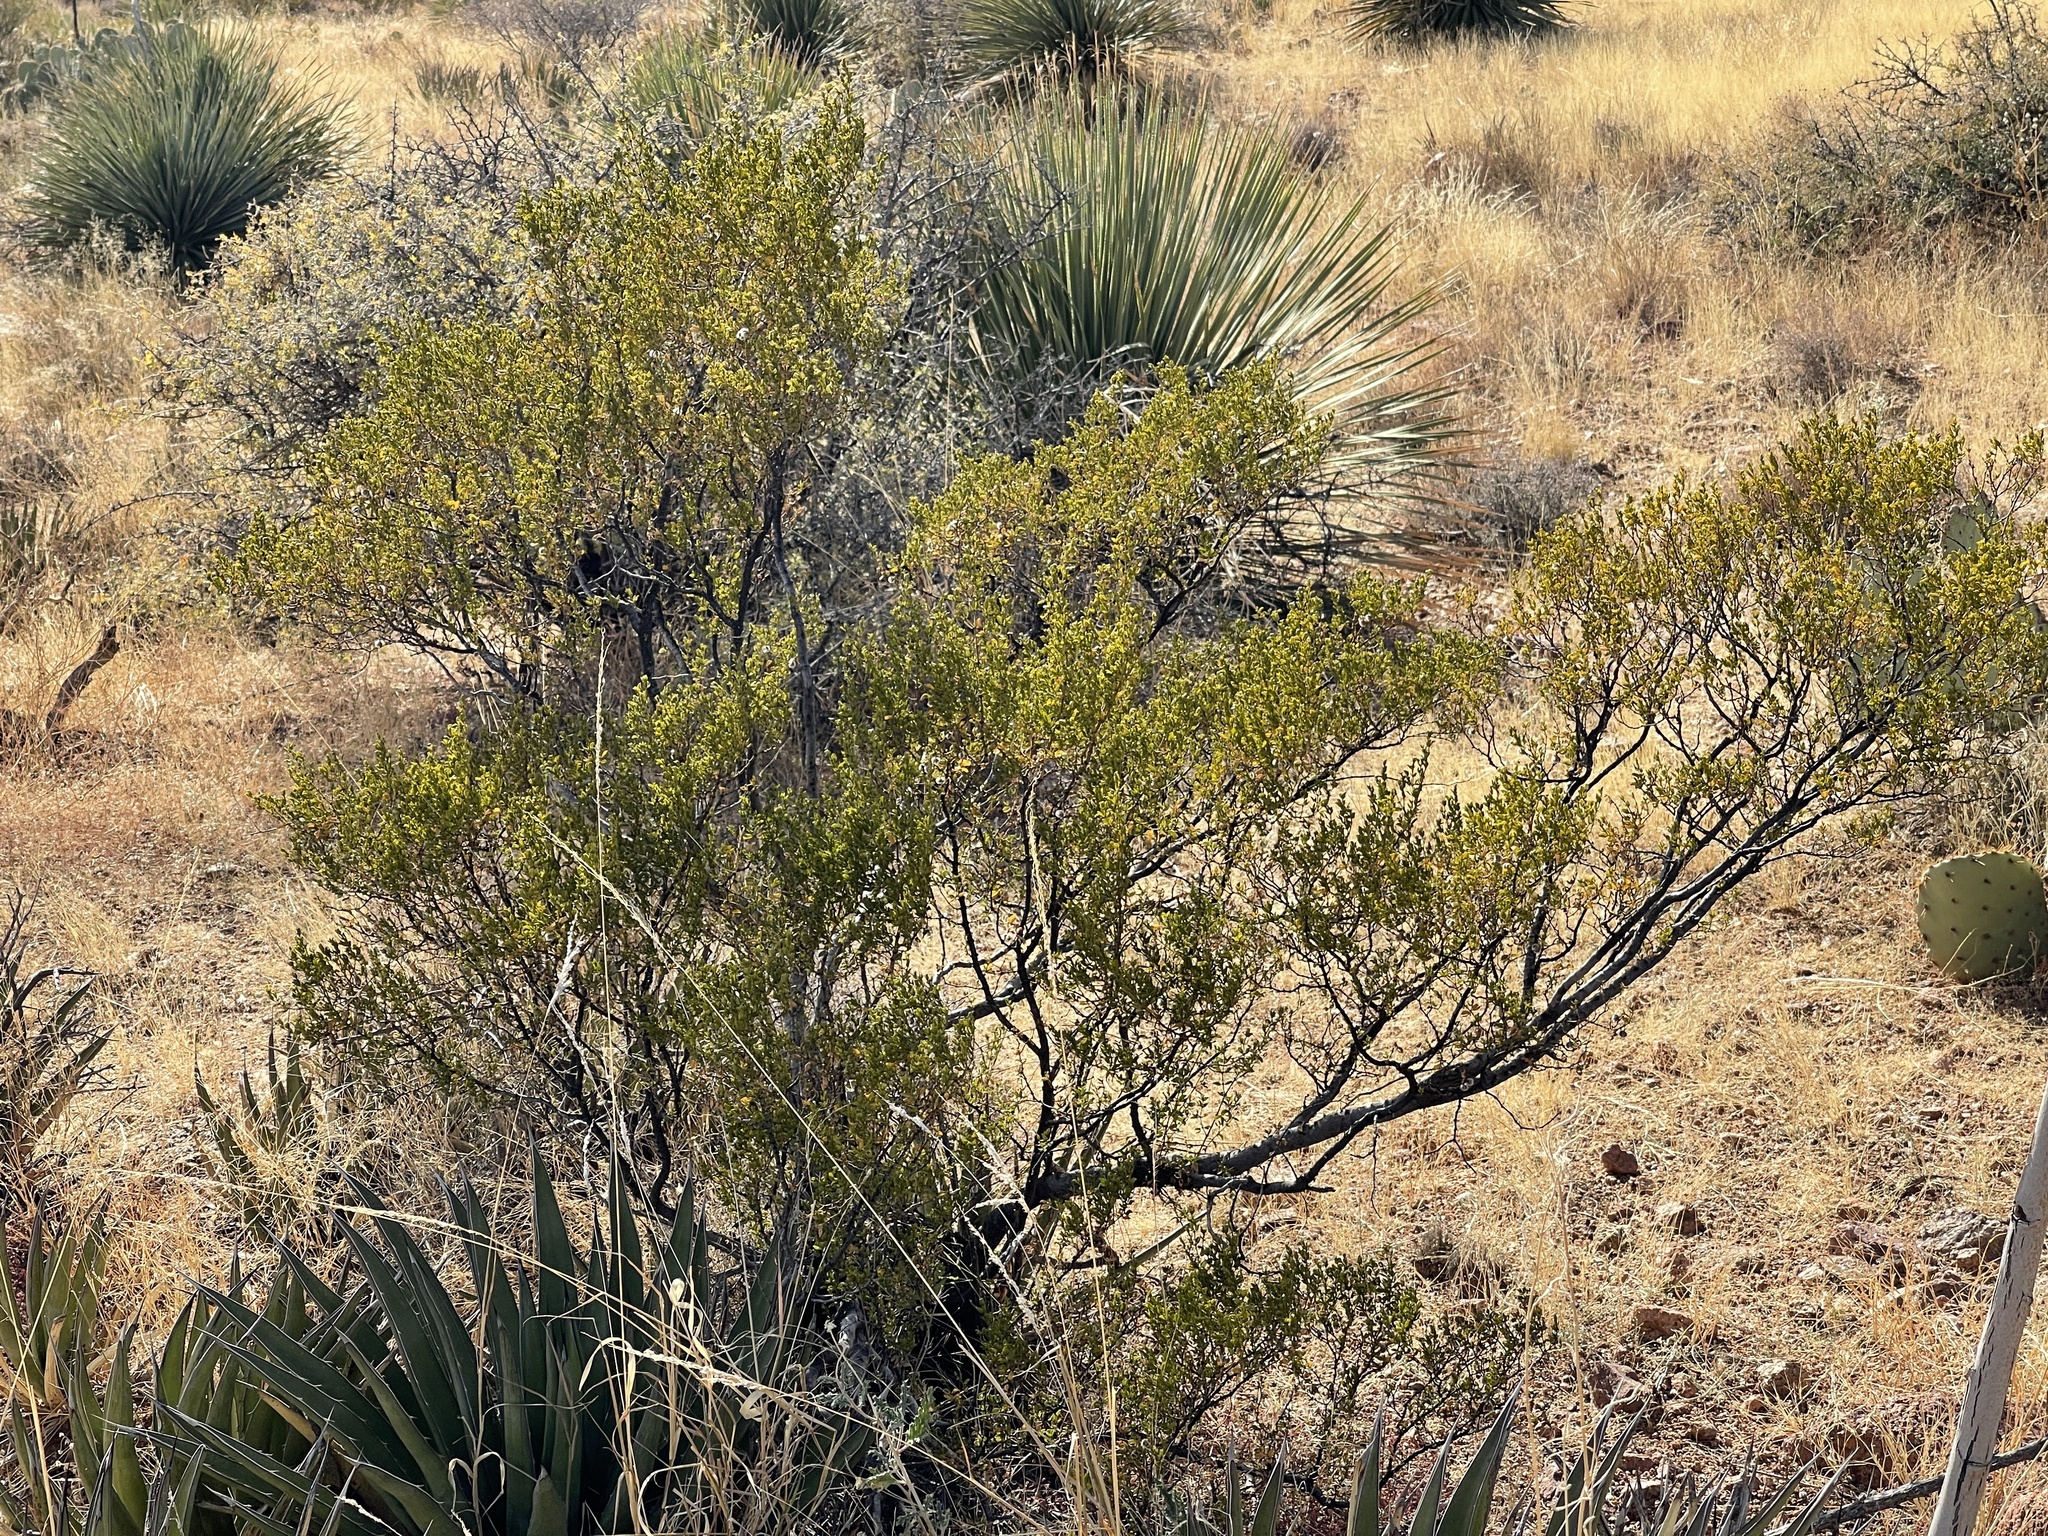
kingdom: Plantae
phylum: Tracheophyta
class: Magnoliopsida
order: Zygophyllales
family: Zygophyllaceae
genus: Larrea
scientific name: Larrea tridentata
